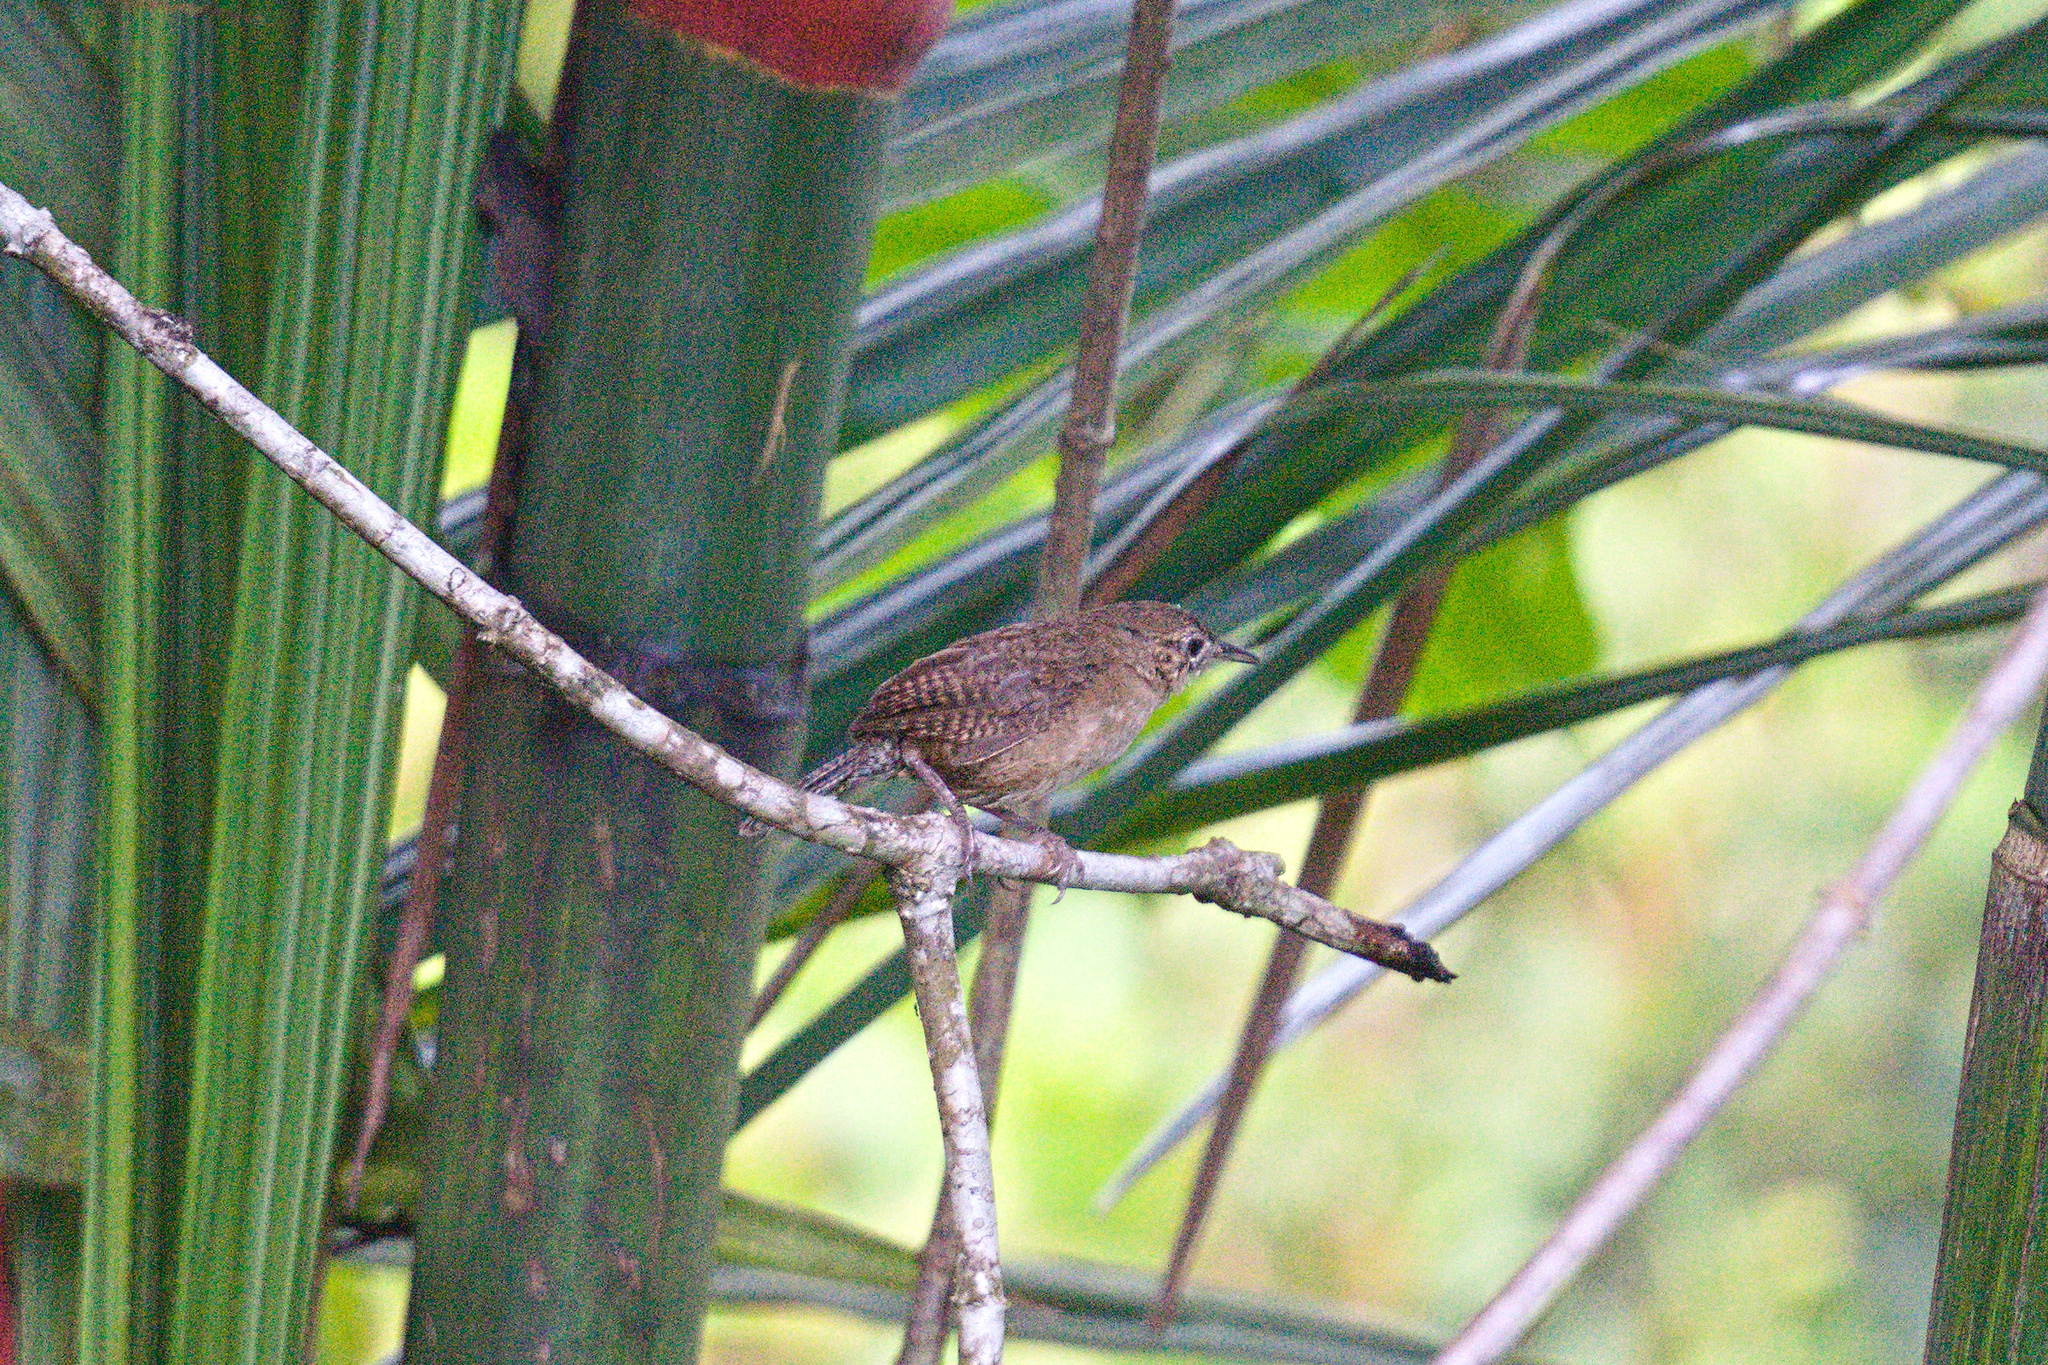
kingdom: Animalia
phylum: Chordata
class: Aves
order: Passeriformes
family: Troglodytidae
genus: Troglodytes
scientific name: Troglodytes aedon
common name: House wren
